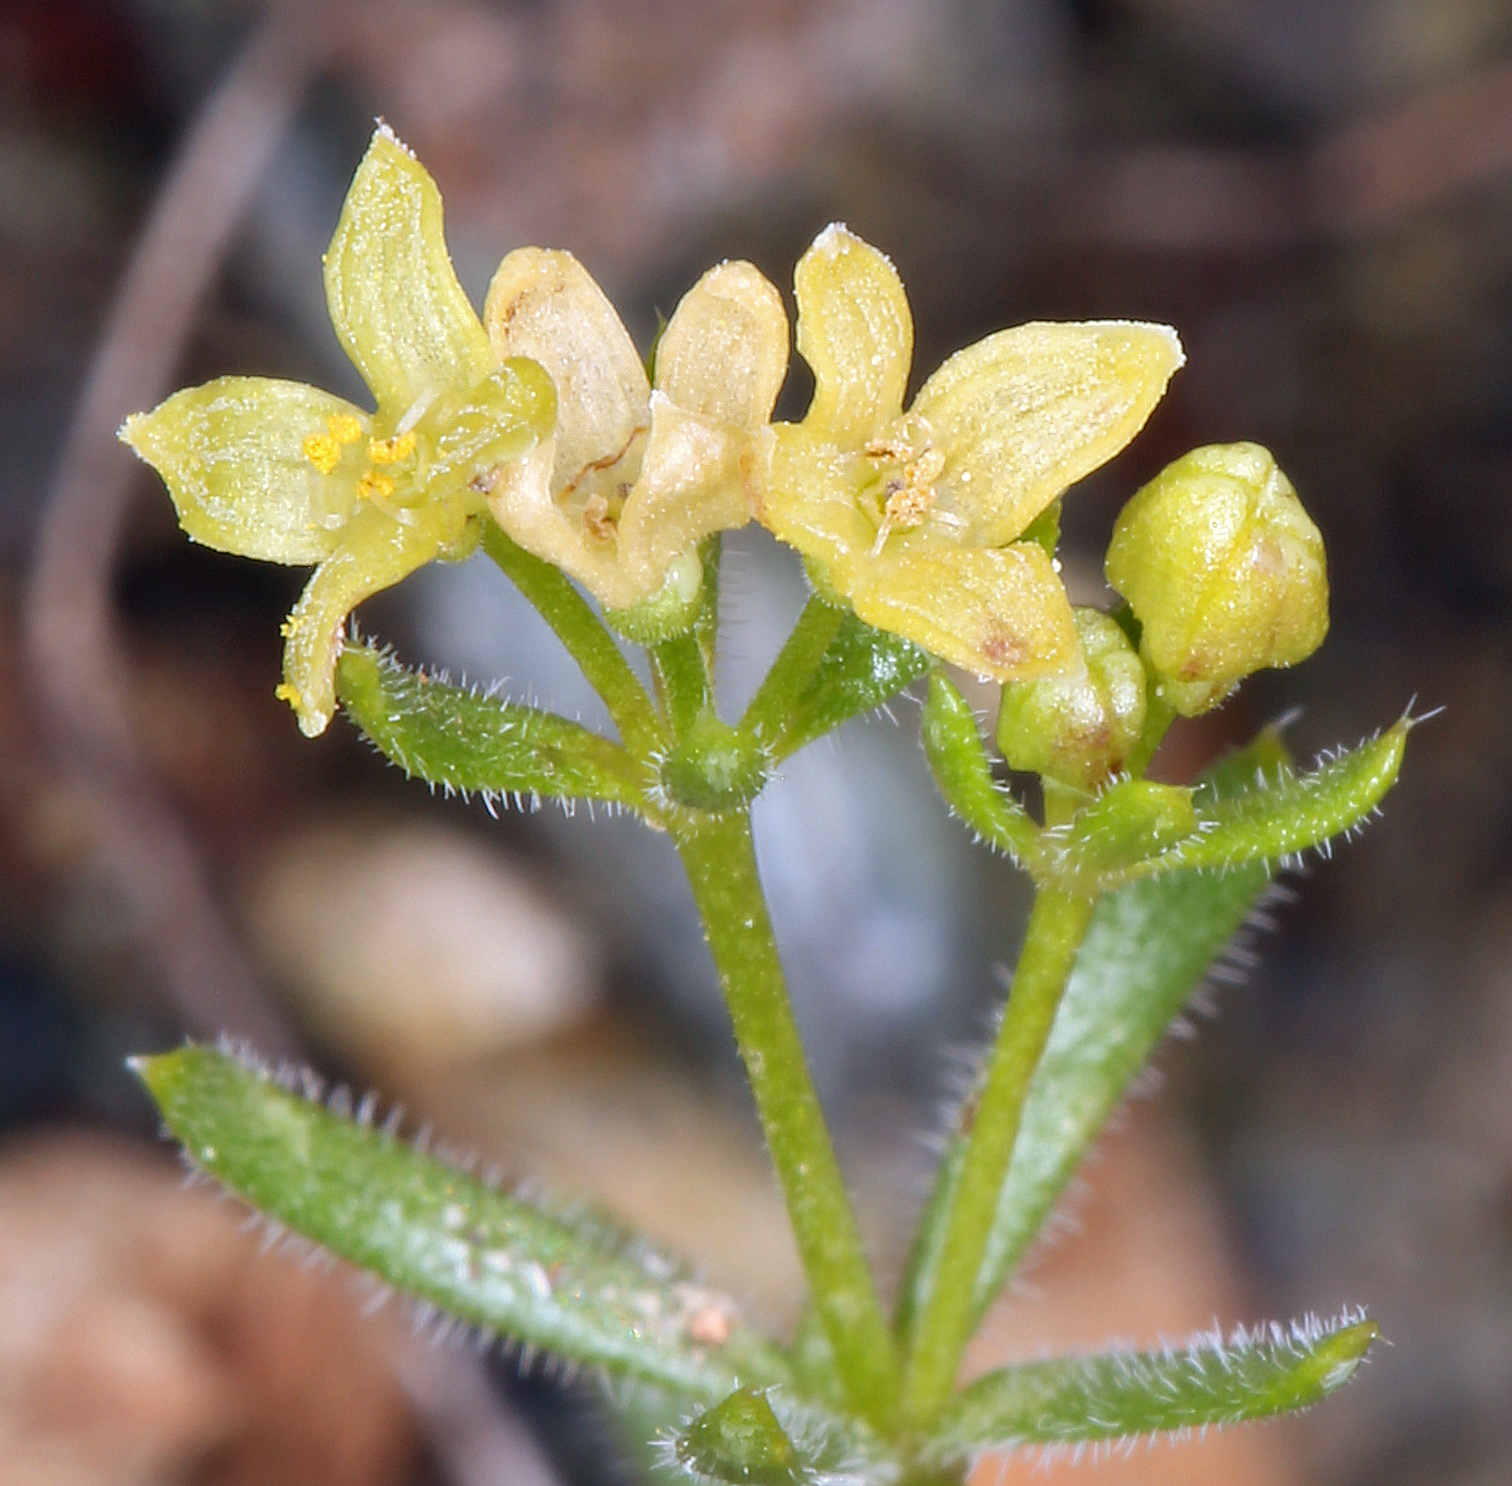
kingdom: Plantae
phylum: Tracheophyta
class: Magnoliopsida
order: Gentianales
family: Rubiaceae
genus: Galium
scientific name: Galium
